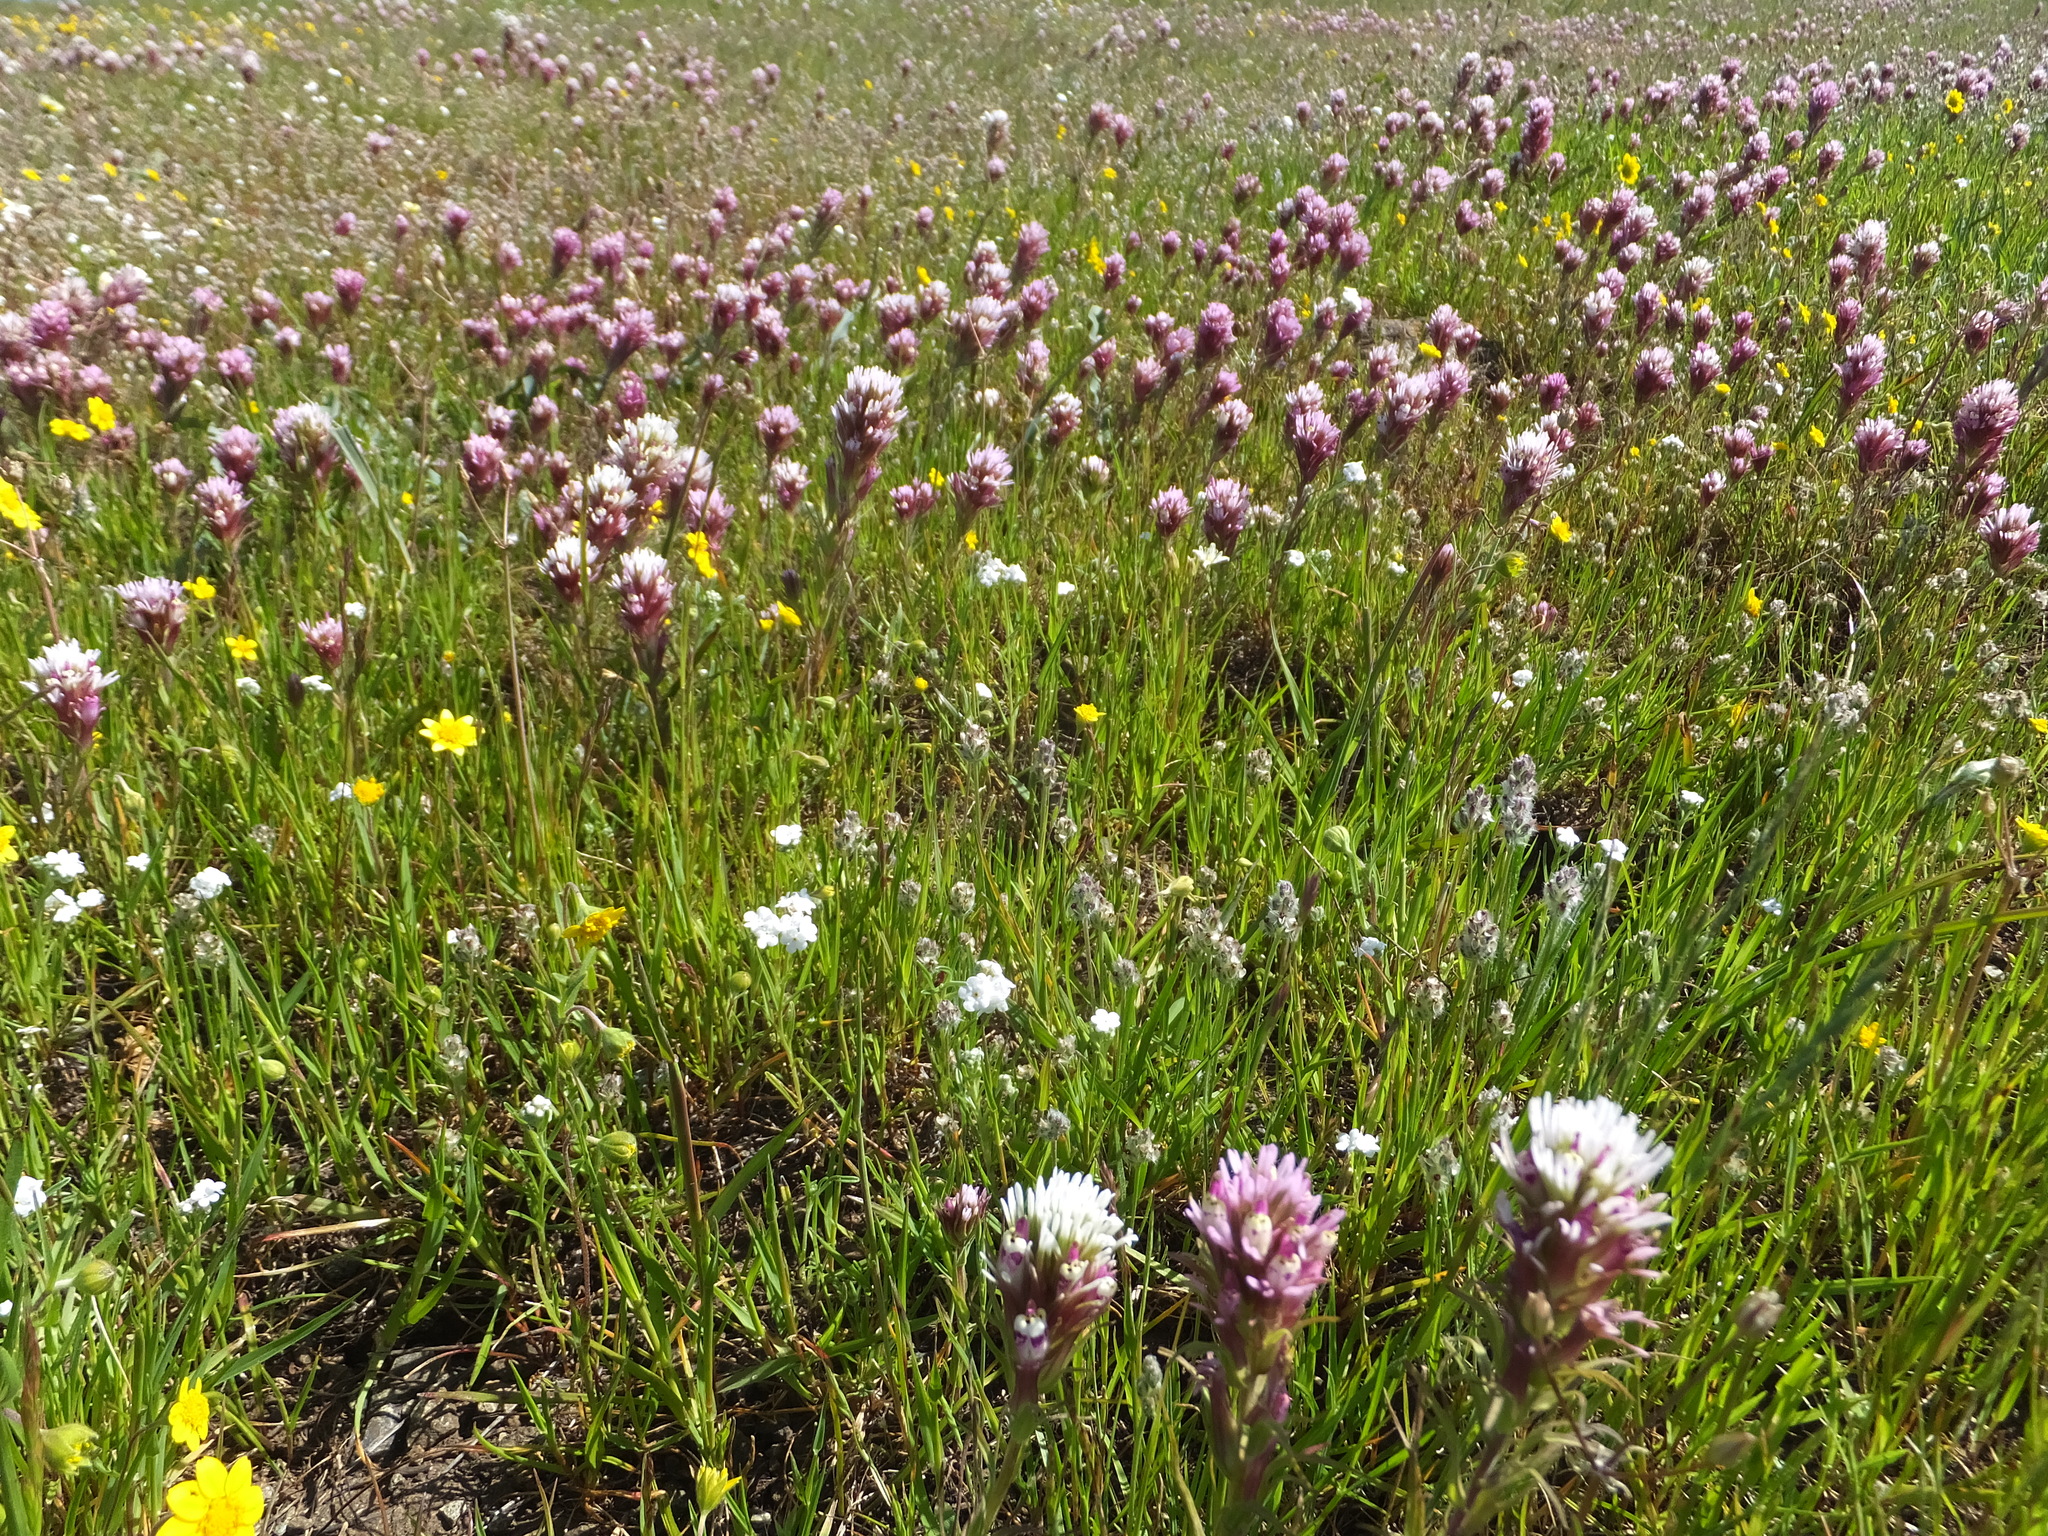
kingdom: Plantae
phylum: Tracheophyta
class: Magnoliopsida
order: Lamiales
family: Orobanchaceae
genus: Castilleja
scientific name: Castilleja densiflora
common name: Dense-flower indian paintbrush
